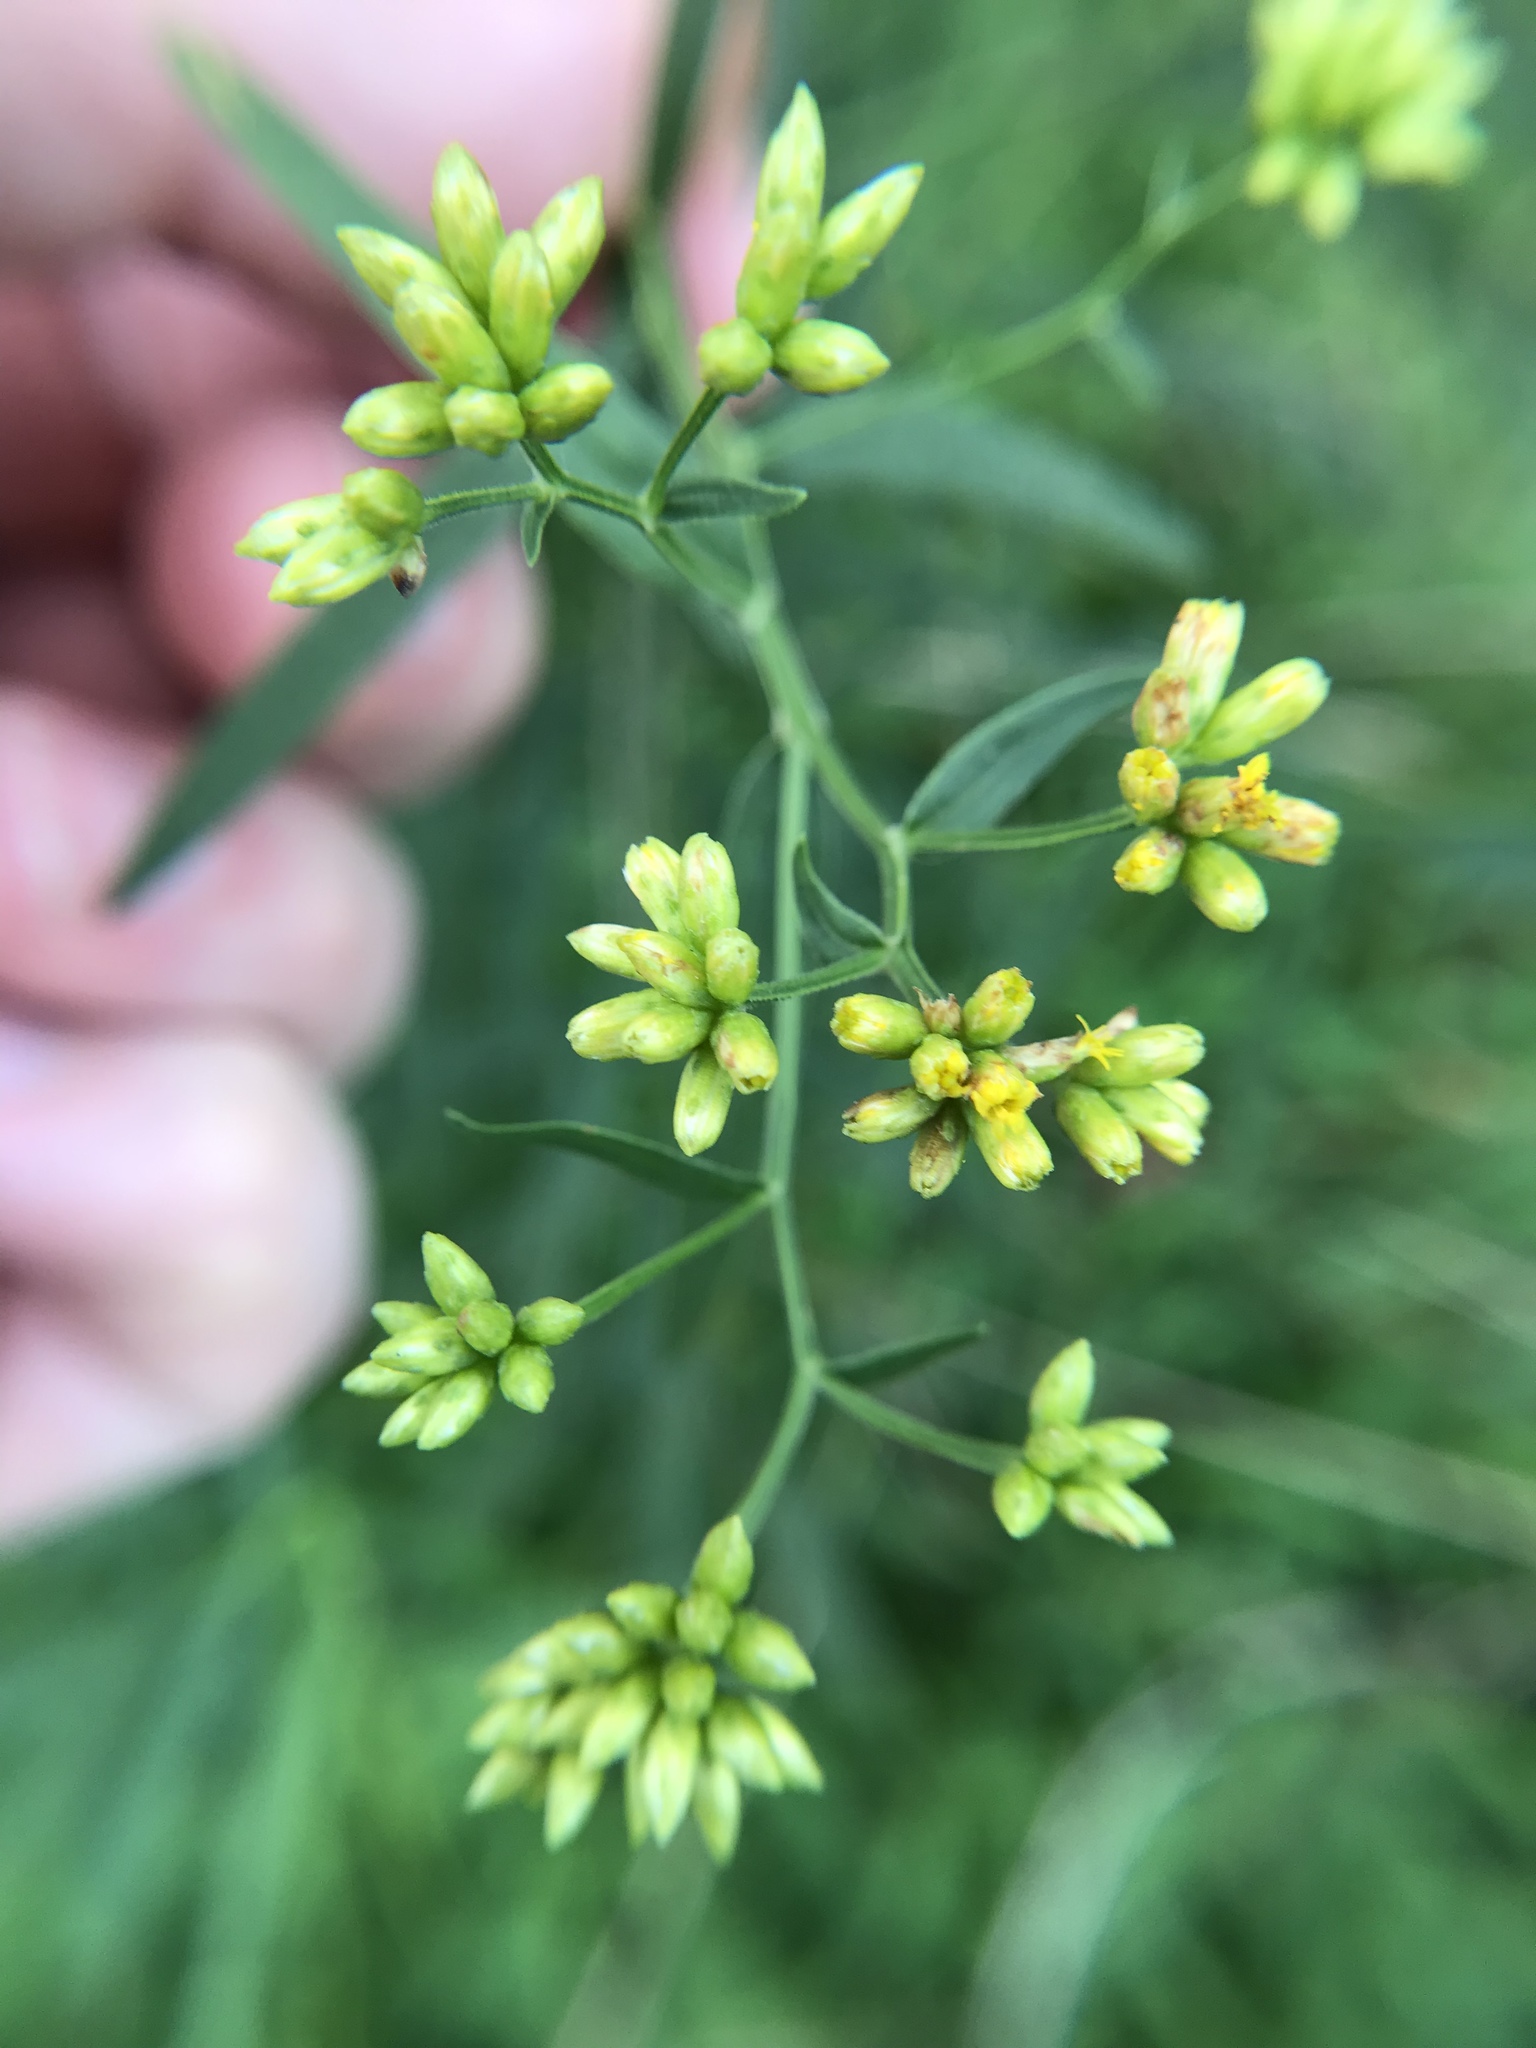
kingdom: Plantae
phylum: Tracheophyta
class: Magnoliopsida
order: Asterales
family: Asteraceae
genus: Euthamia
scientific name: Euthamia graminifolia
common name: Common goldentop
